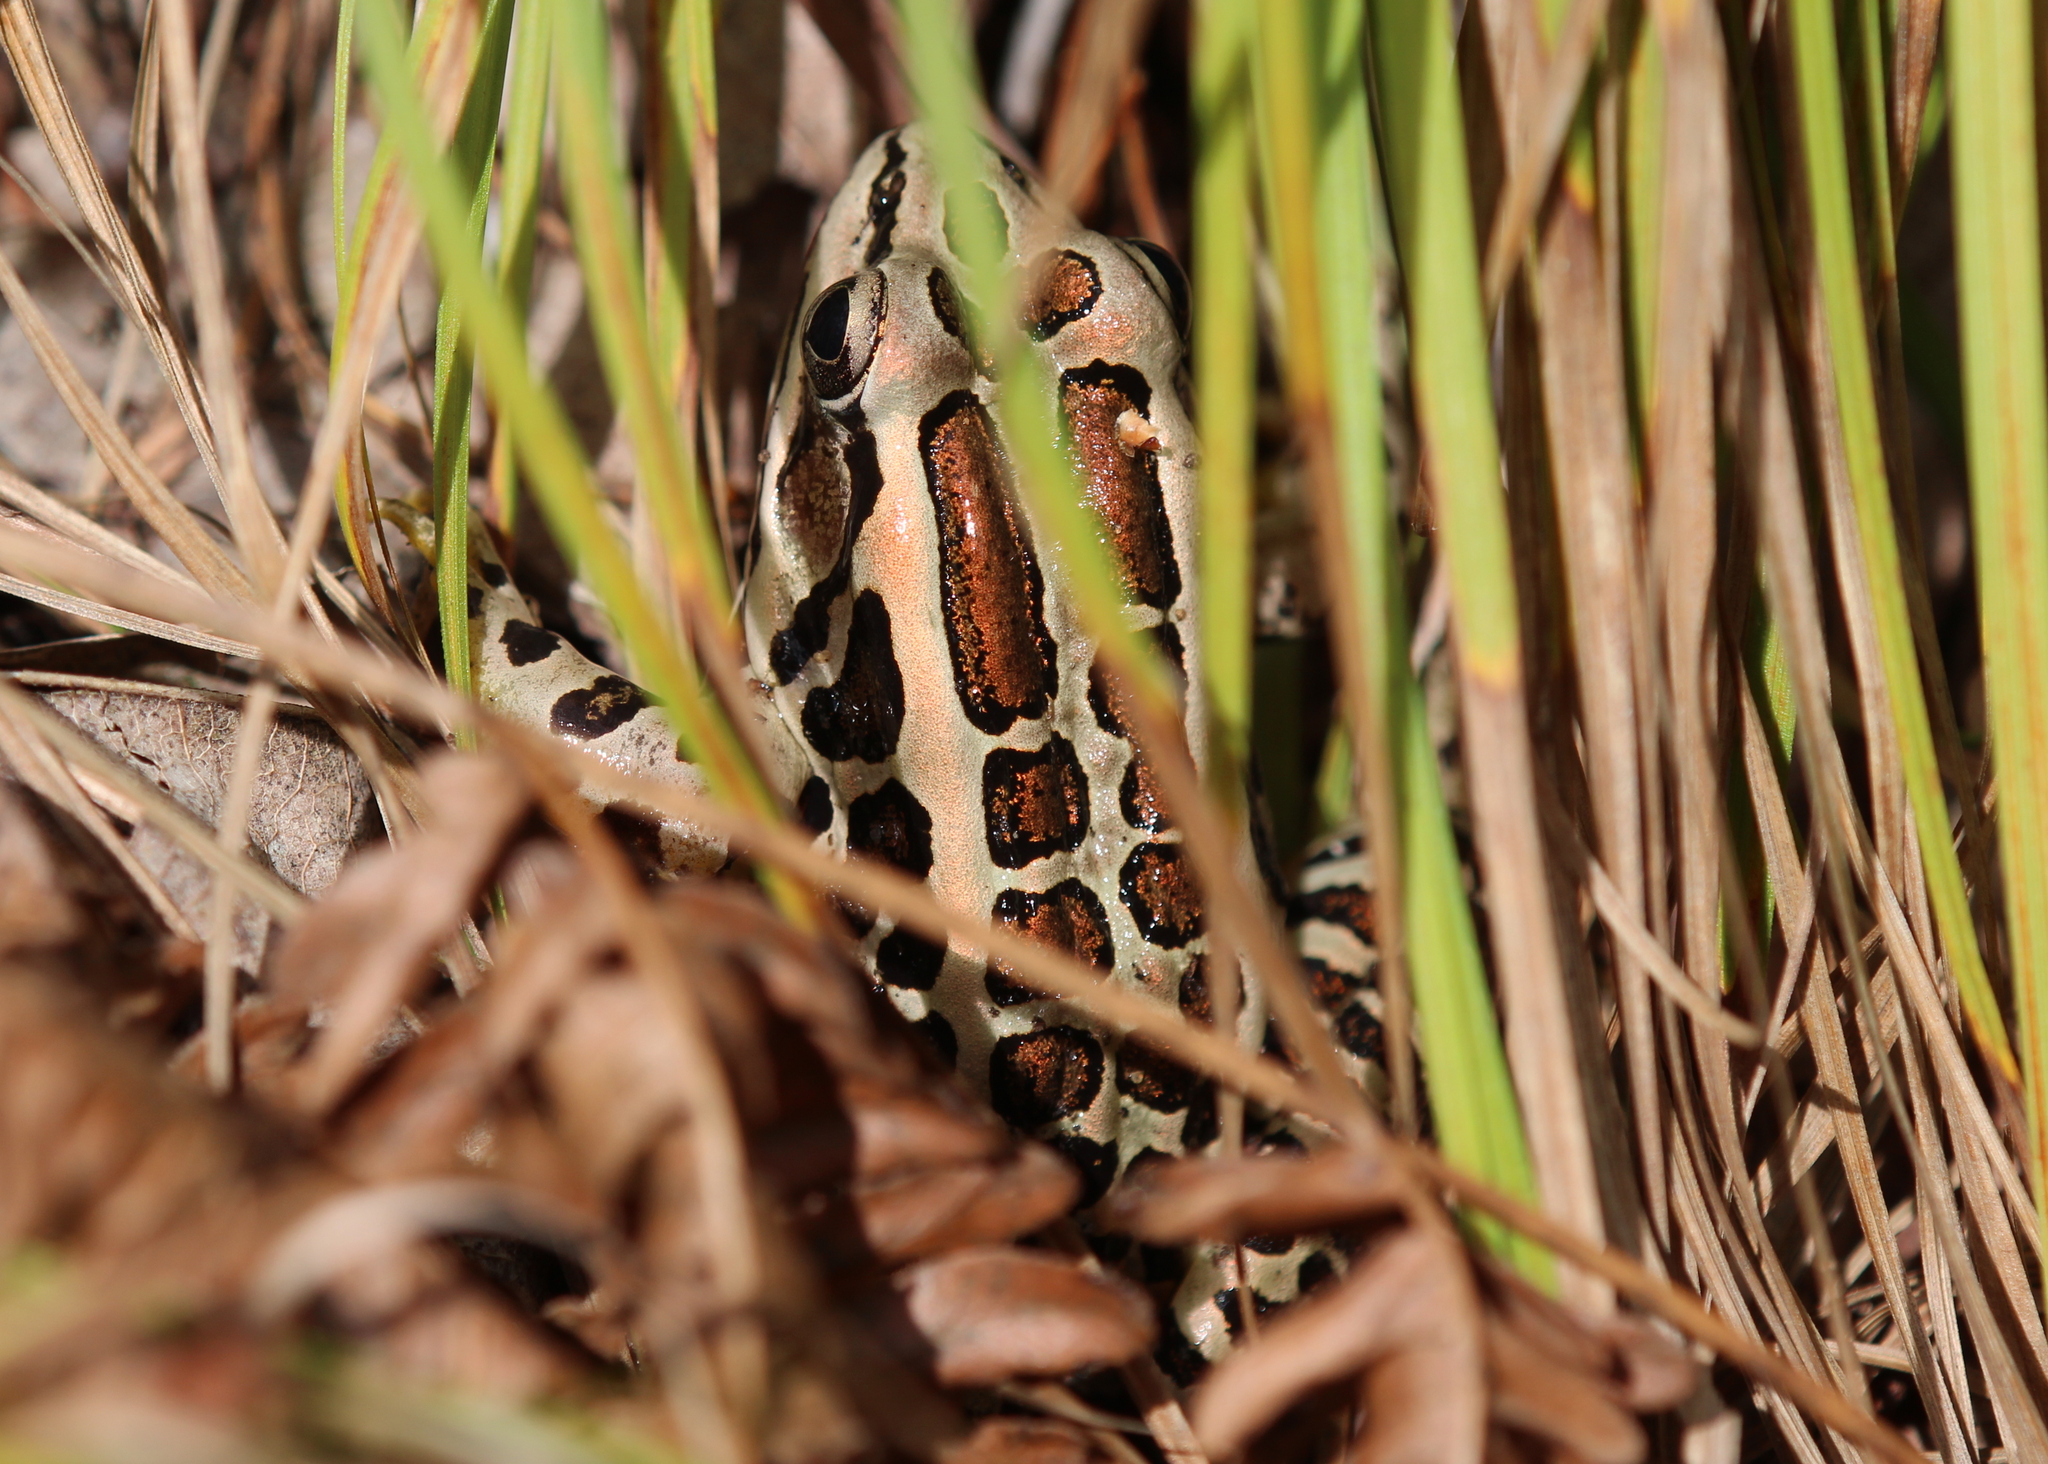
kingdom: Animalia
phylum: Chordata
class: Amphibia
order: Anura
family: Ranidae
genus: Lithobates
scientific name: Lithobates palustris
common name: Pickerel frog
